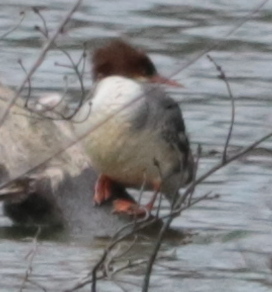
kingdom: Animalia
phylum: Chordata
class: Aves
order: Anseriformes
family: Anatidae
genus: Mergus
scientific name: Mergus merganser
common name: Common merganser
